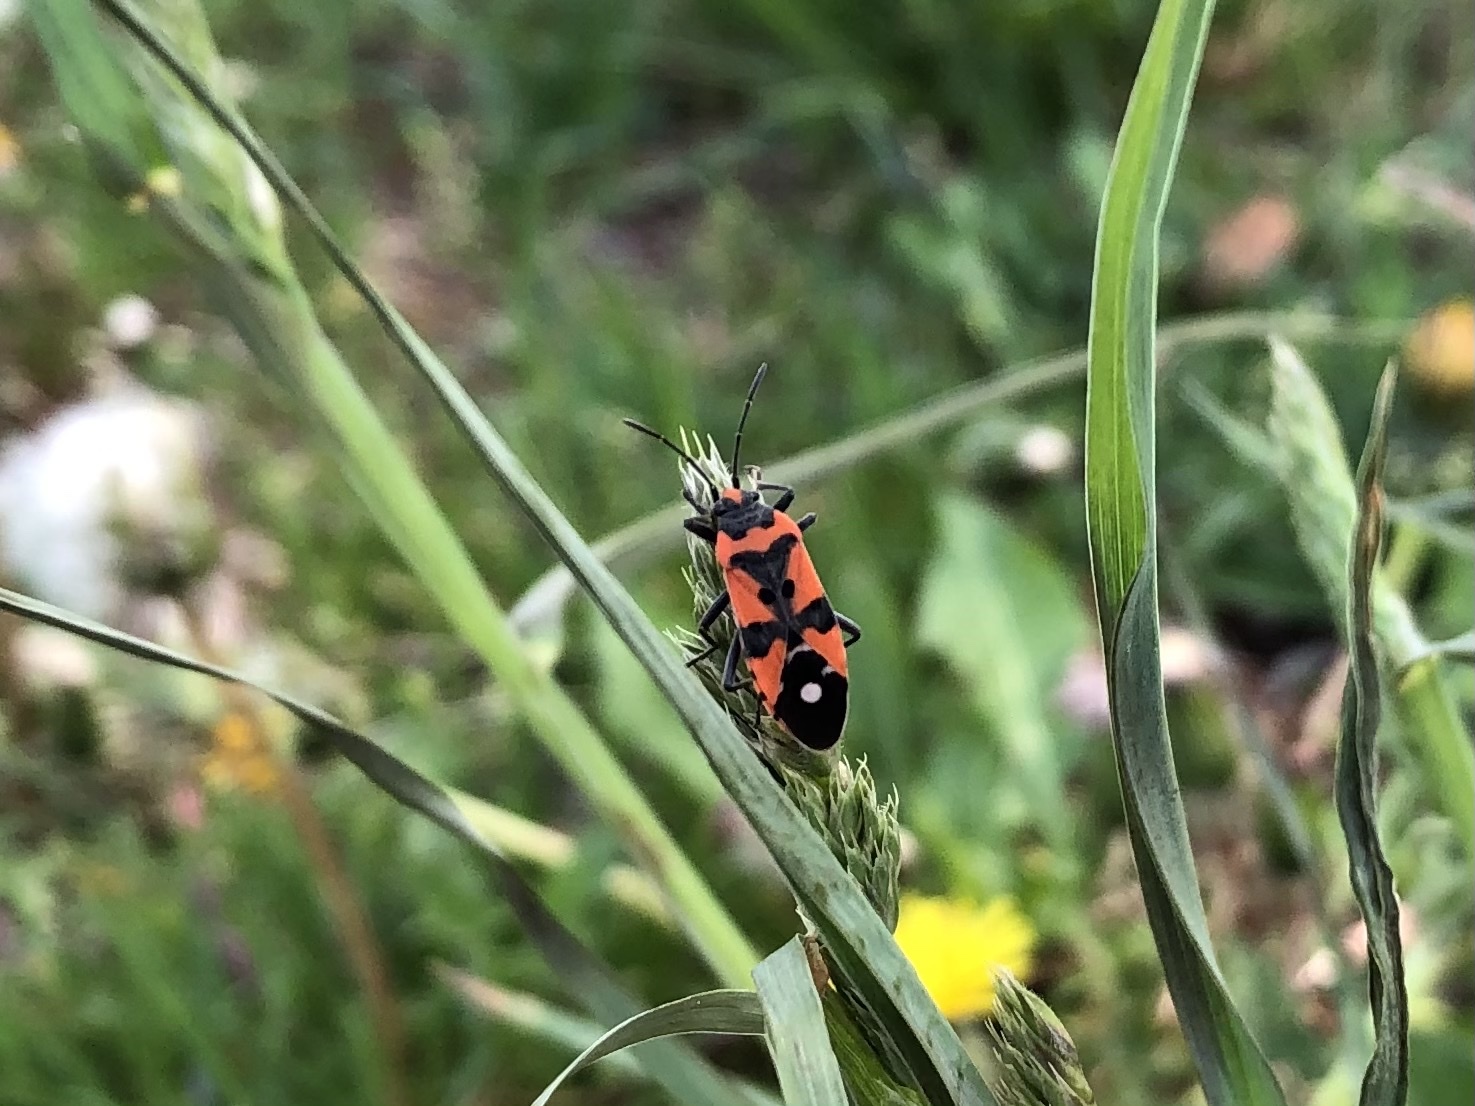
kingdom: Animalia
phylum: Arthropoda
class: Insecta
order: Hemiptera
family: Lygaeidae
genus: Lygaeus
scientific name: Lygaeus equestris
